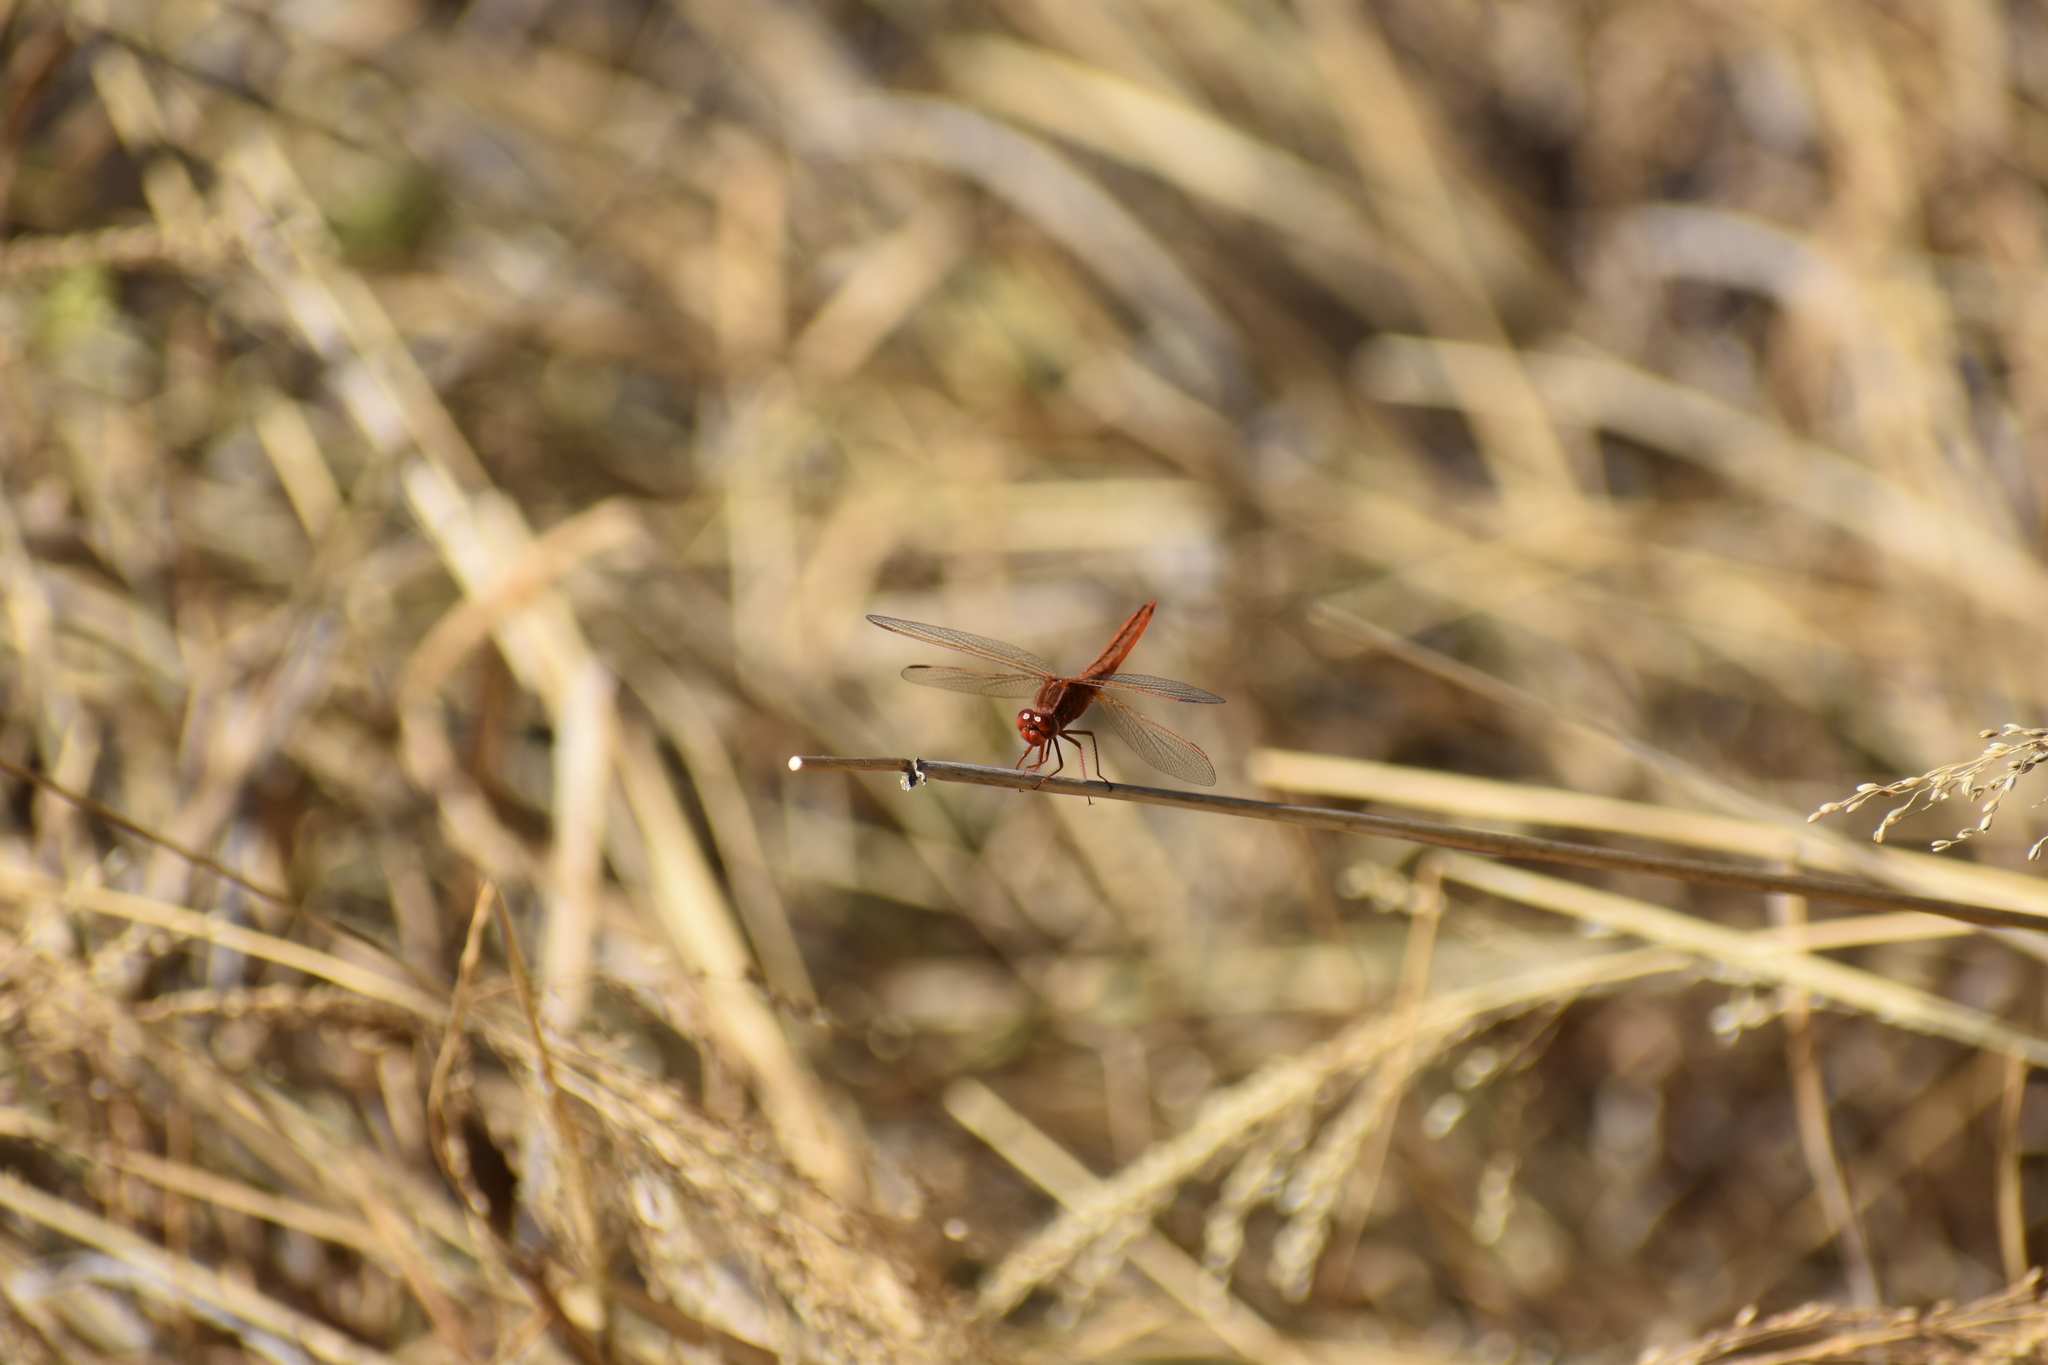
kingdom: Animalia
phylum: Arthropoda
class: Insecta
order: Odonata
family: Libellulidae
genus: Crocothemis
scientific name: Crocothemis erythraea
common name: Scarlet dragonfly
